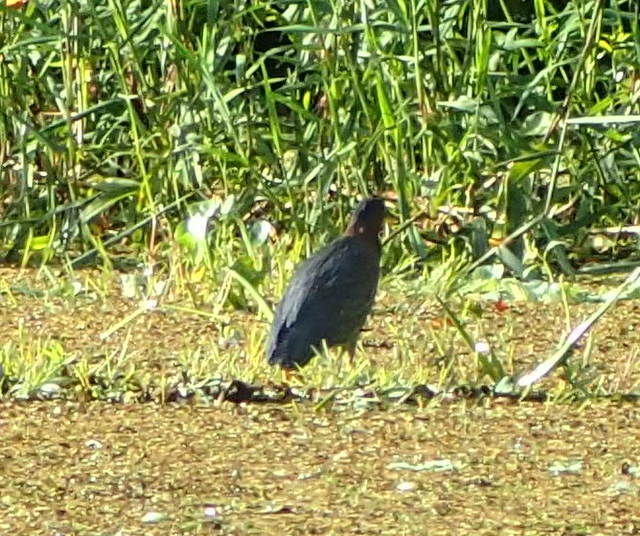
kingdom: Animalia
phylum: Chordata
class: Aves
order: Pelecaniformes
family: Ardeidae
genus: Butorides
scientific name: Butorides virescens
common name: Green heron
